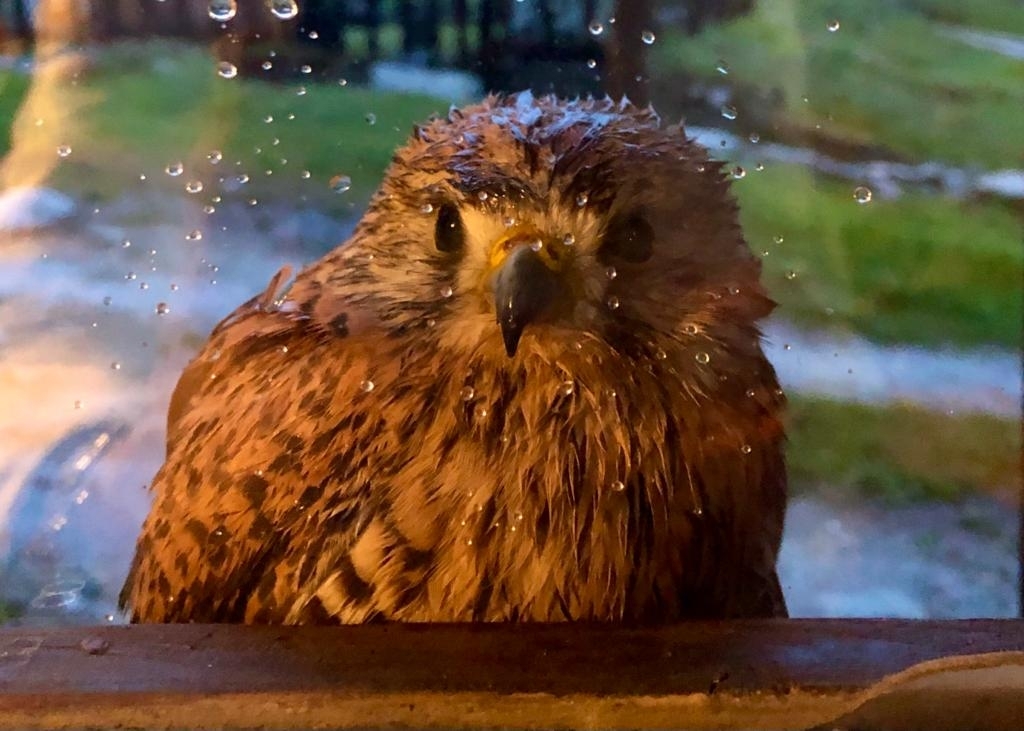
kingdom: Animalia
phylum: Chordata
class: Aves
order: Falconiformes
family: Falconidae
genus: Falco
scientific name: Falco tinnunculus
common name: Common kestrel
